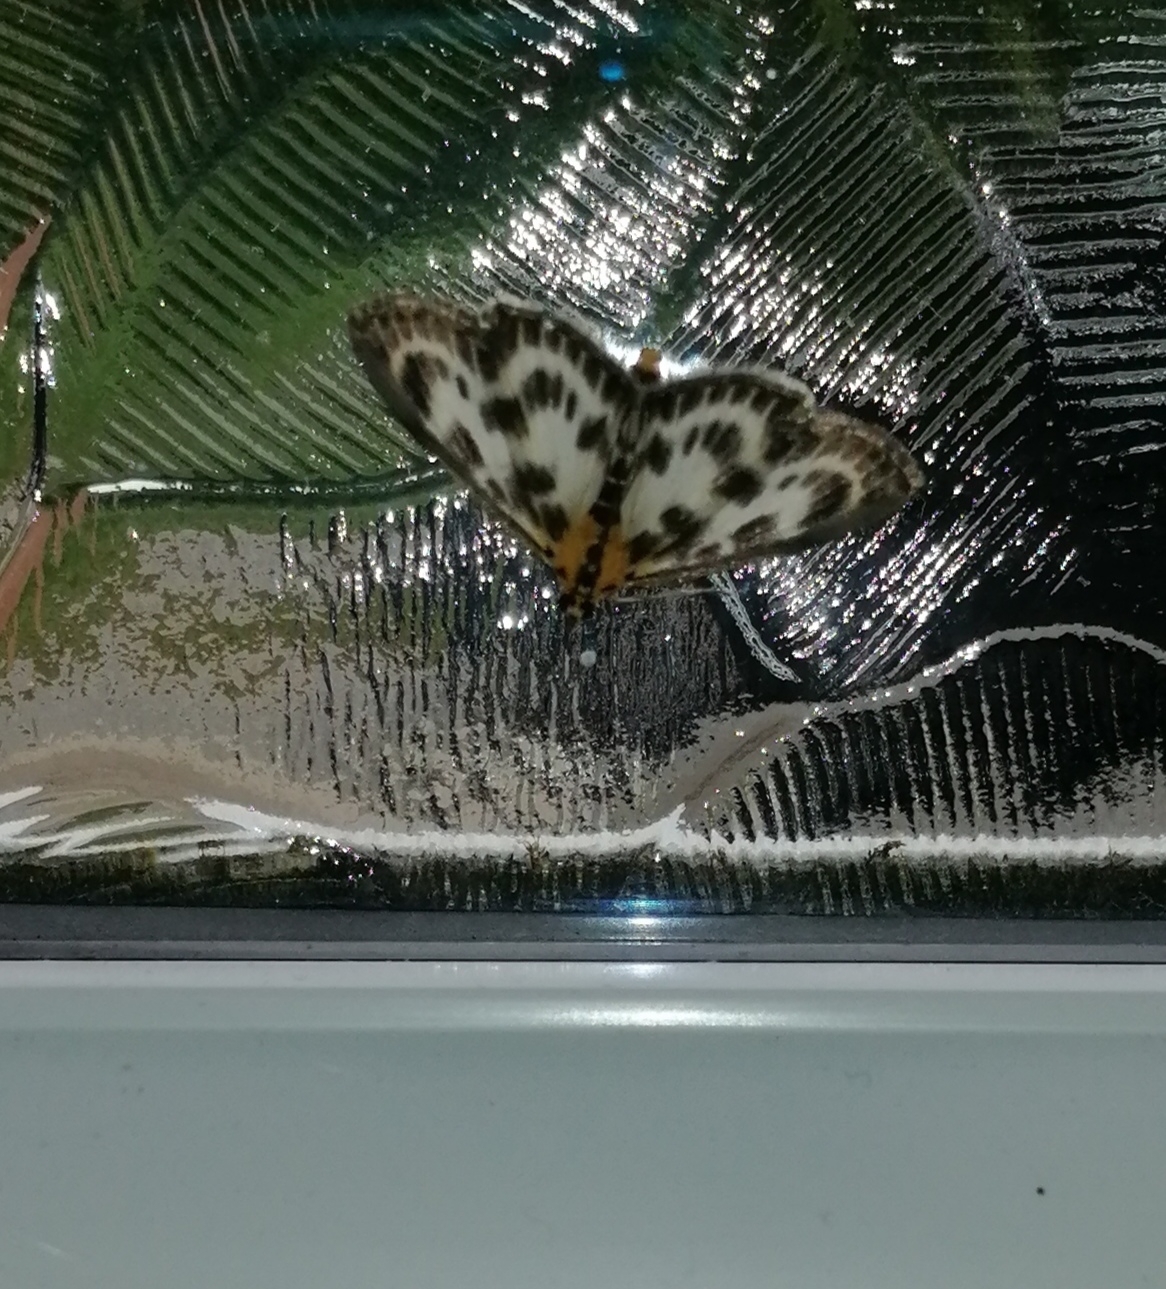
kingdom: Animalia
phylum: Arthropoda
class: Insecta
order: Lepidoptera
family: Crambidae
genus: Anania
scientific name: Anania hortulata
